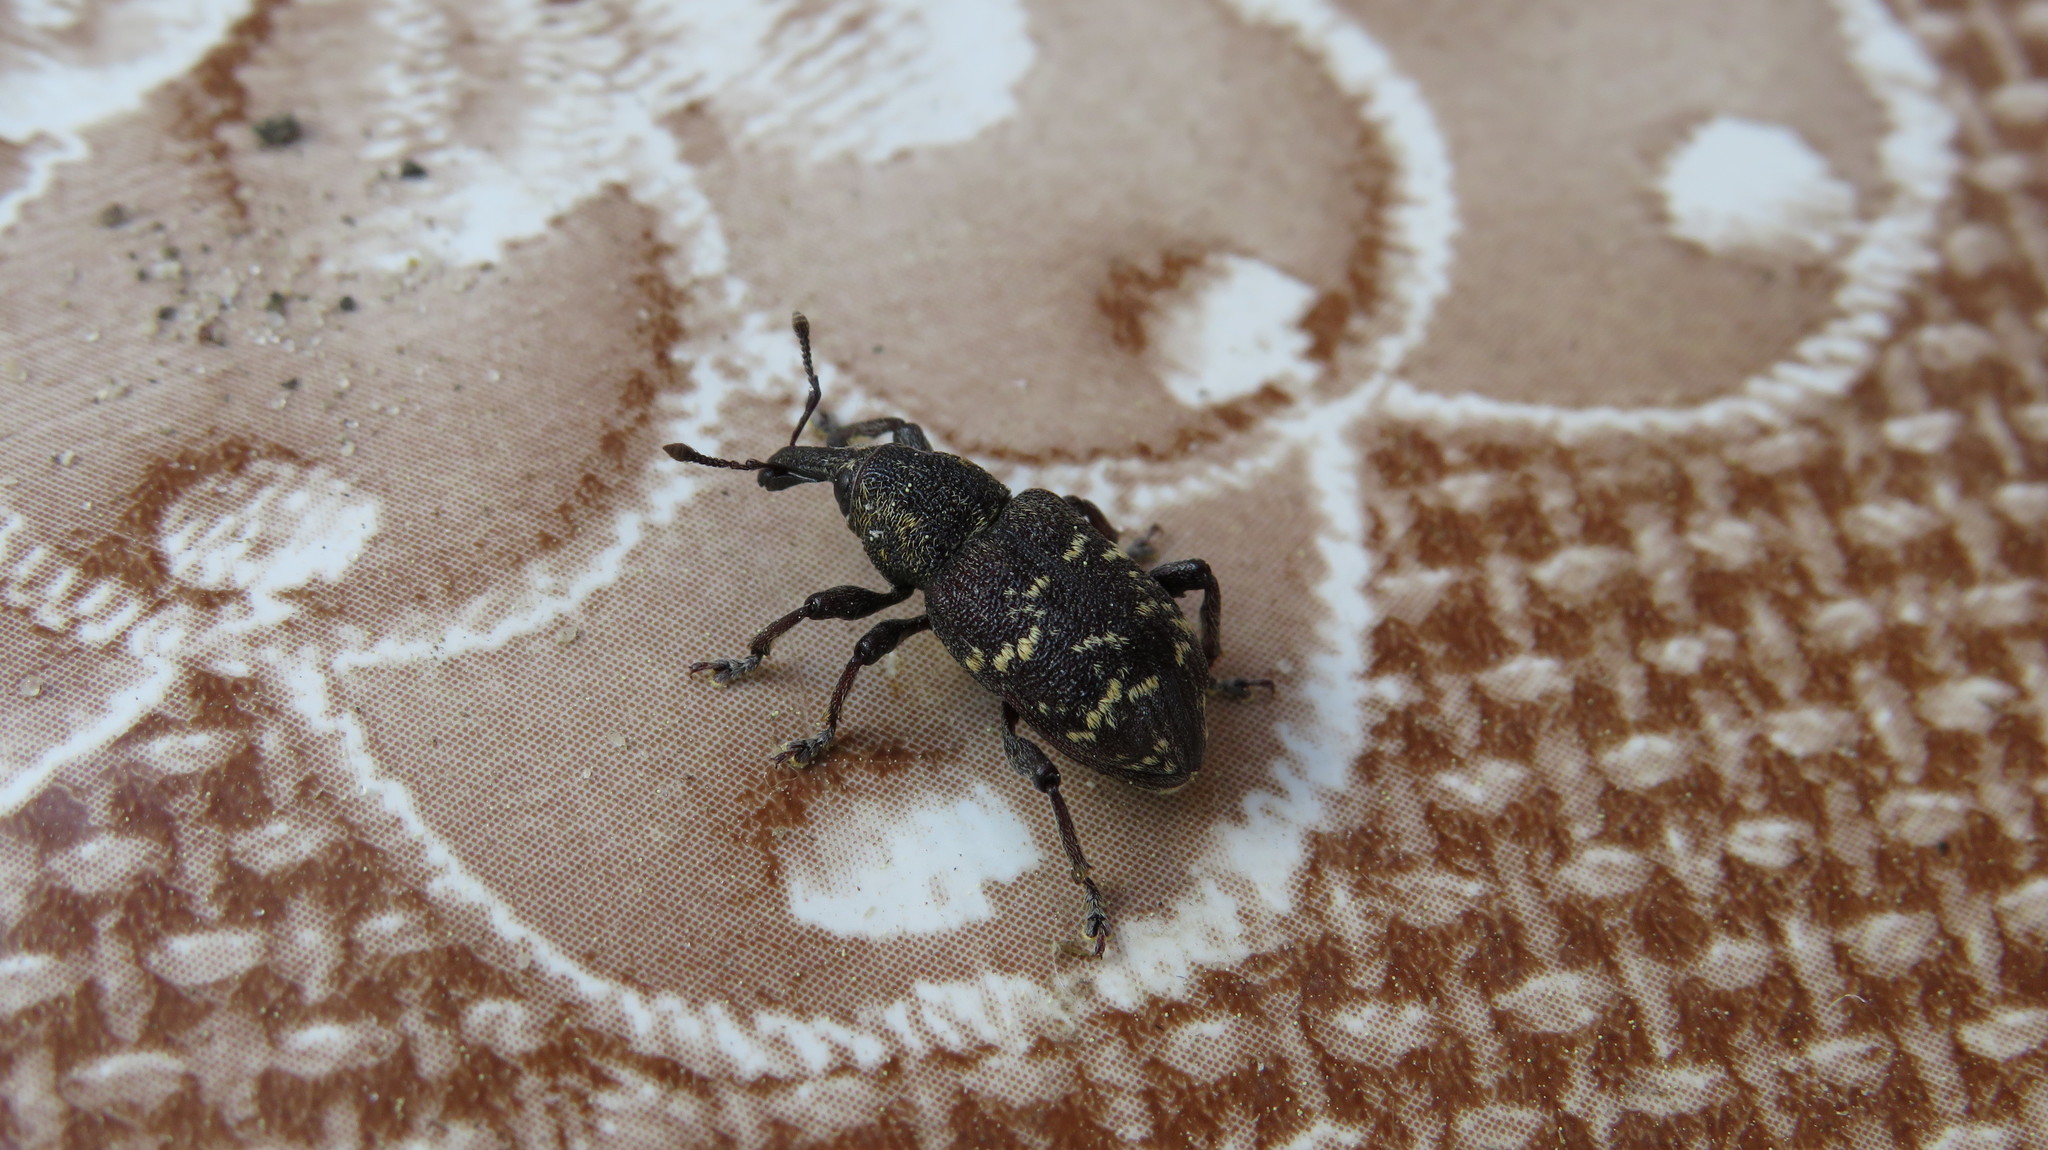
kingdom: Animalia
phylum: Arthropoda
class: Insecta
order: Coleoptera
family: Curculionidae
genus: Hylobius
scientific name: Hylobius abietis
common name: Large pine weevil
